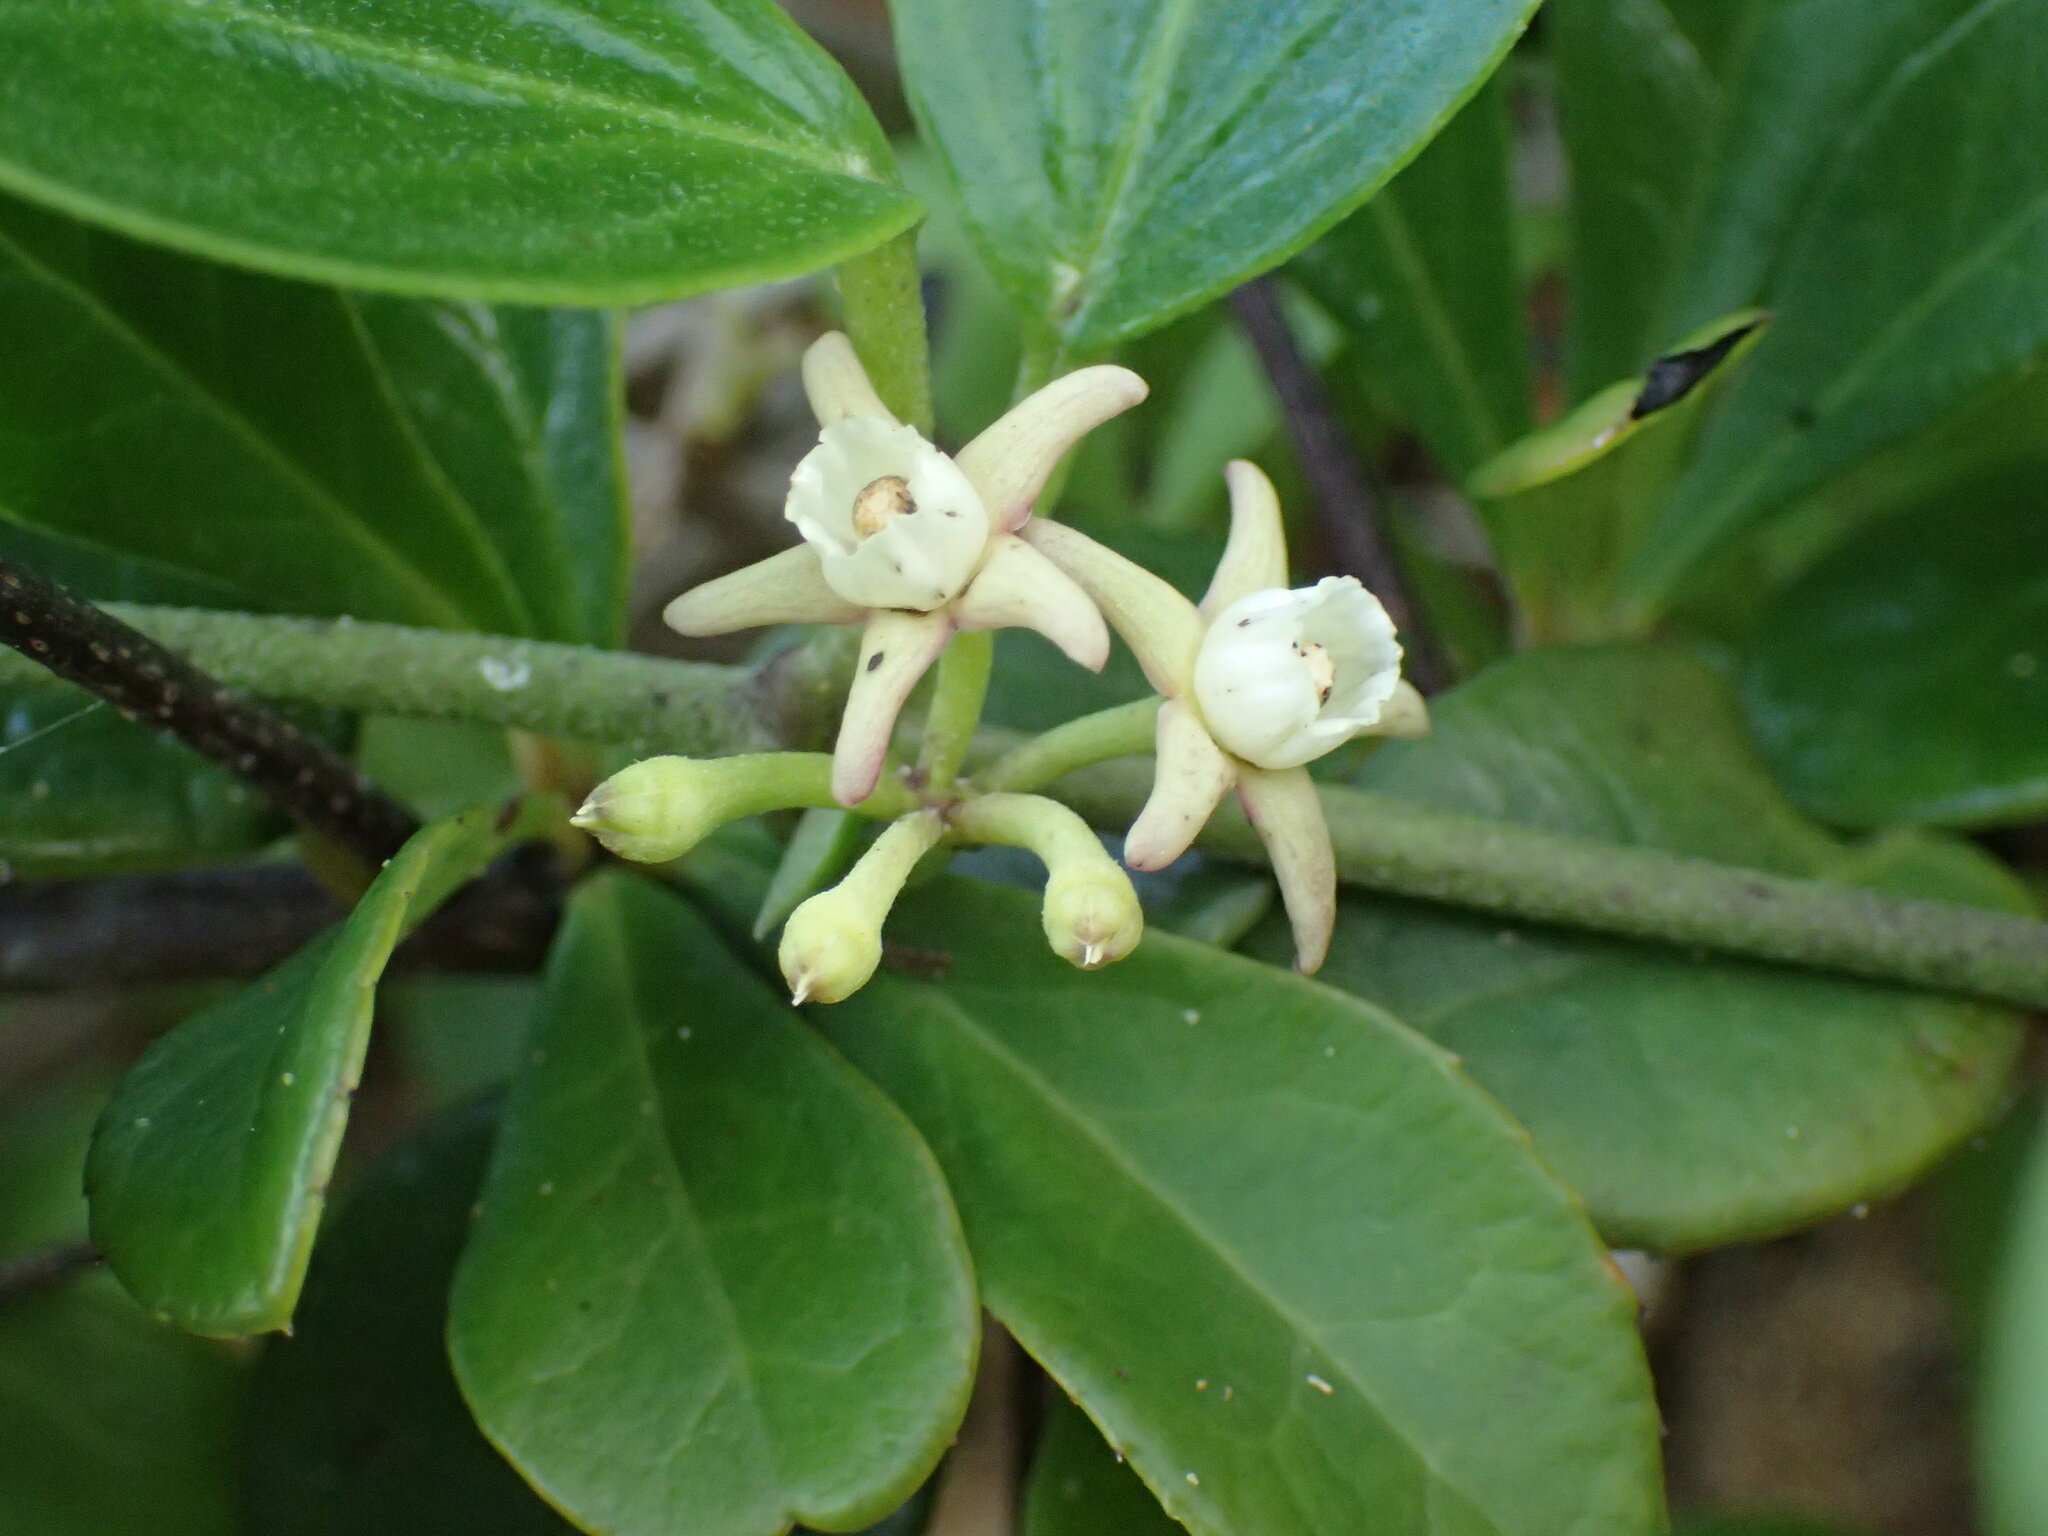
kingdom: Plantae
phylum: Tracheophyta
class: Magnoliopsida
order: Gentianales
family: Apocynaceae
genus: Cynanchum
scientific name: Cynanchum obtusifolium
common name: Monkey-rope
